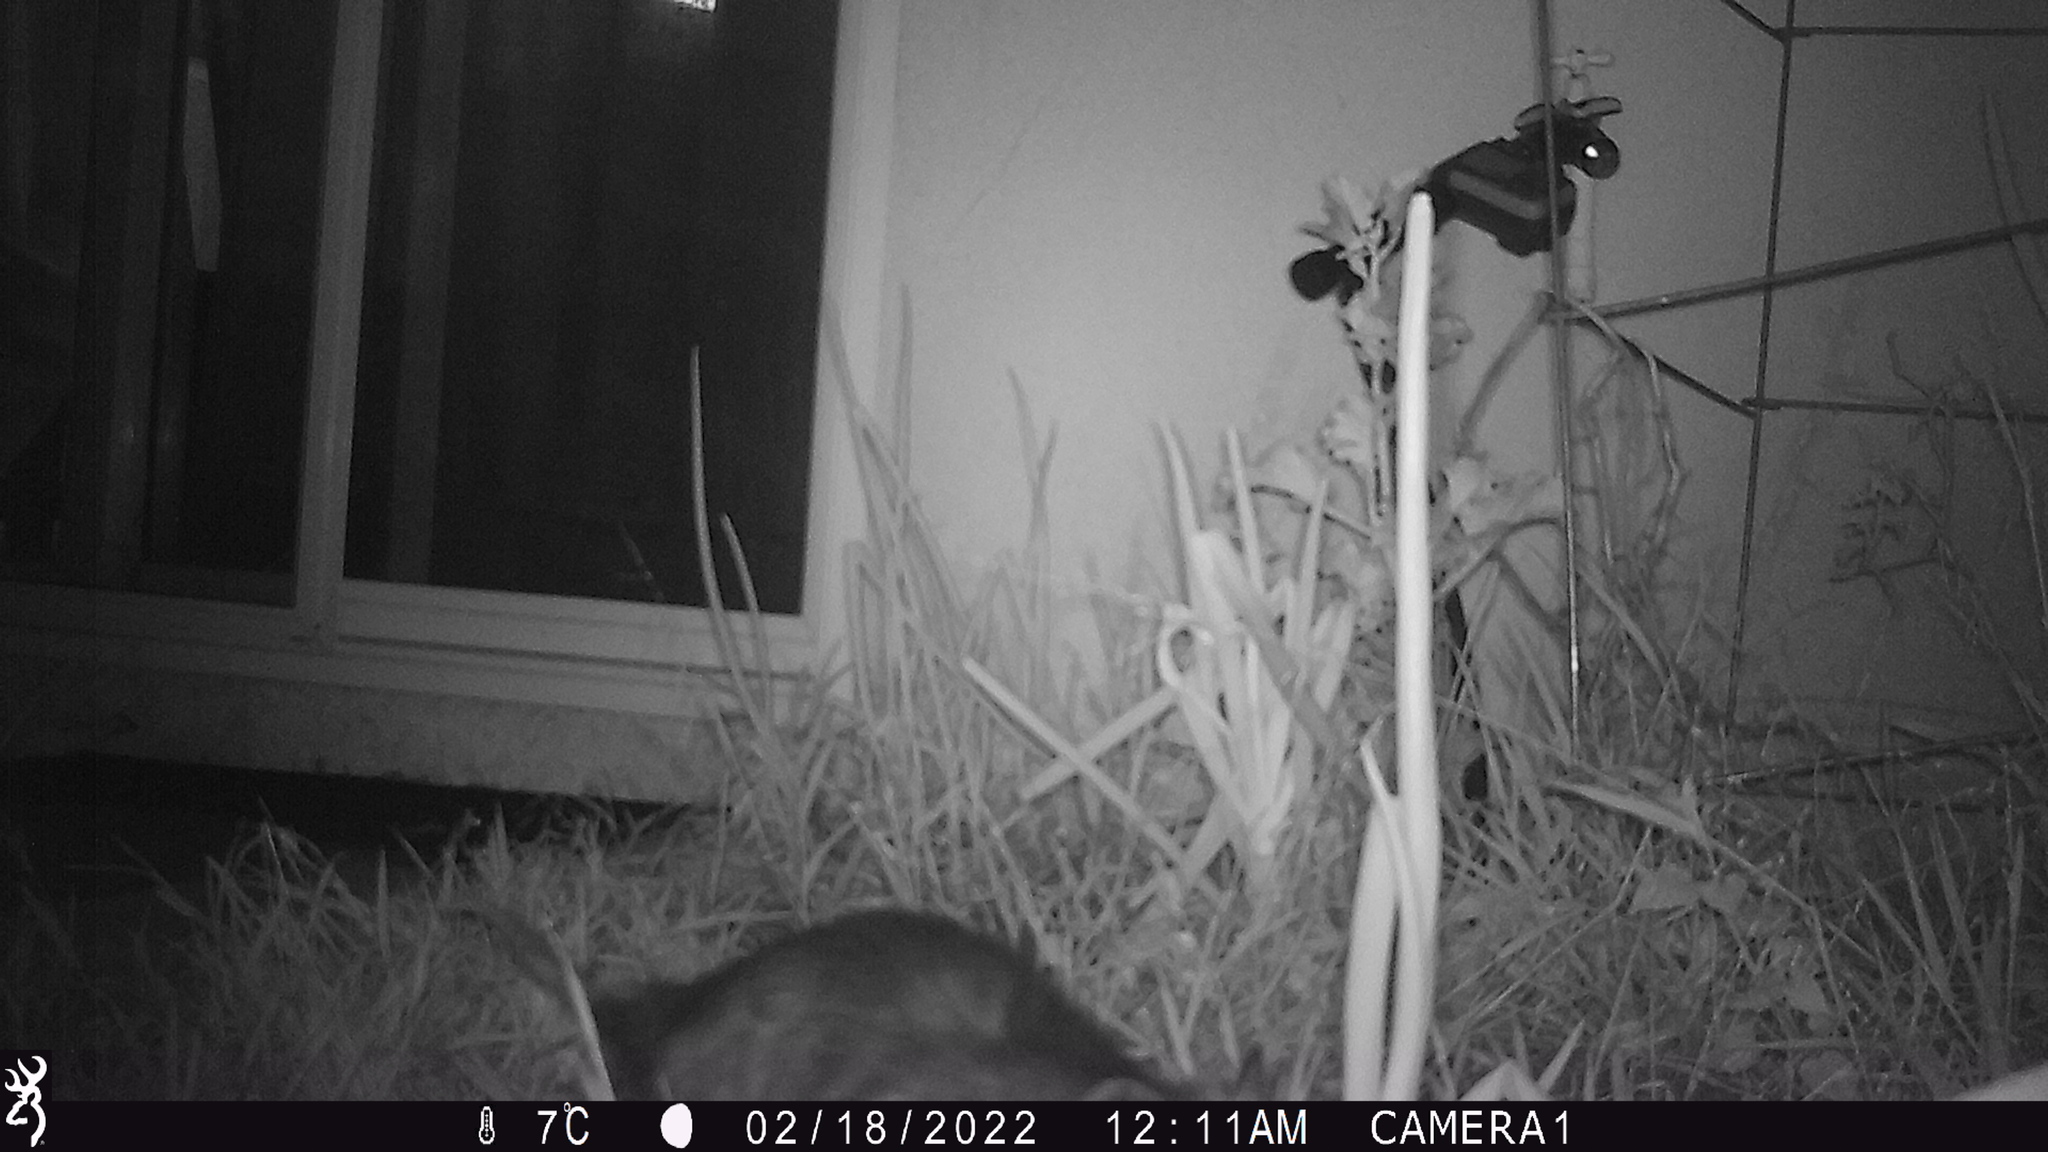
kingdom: Animalia
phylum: Chordata
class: Mammalia
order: Didelphimorphia
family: Didelphidae
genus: Didelphis
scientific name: Didelphis virginiana
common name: Virginia opossum
